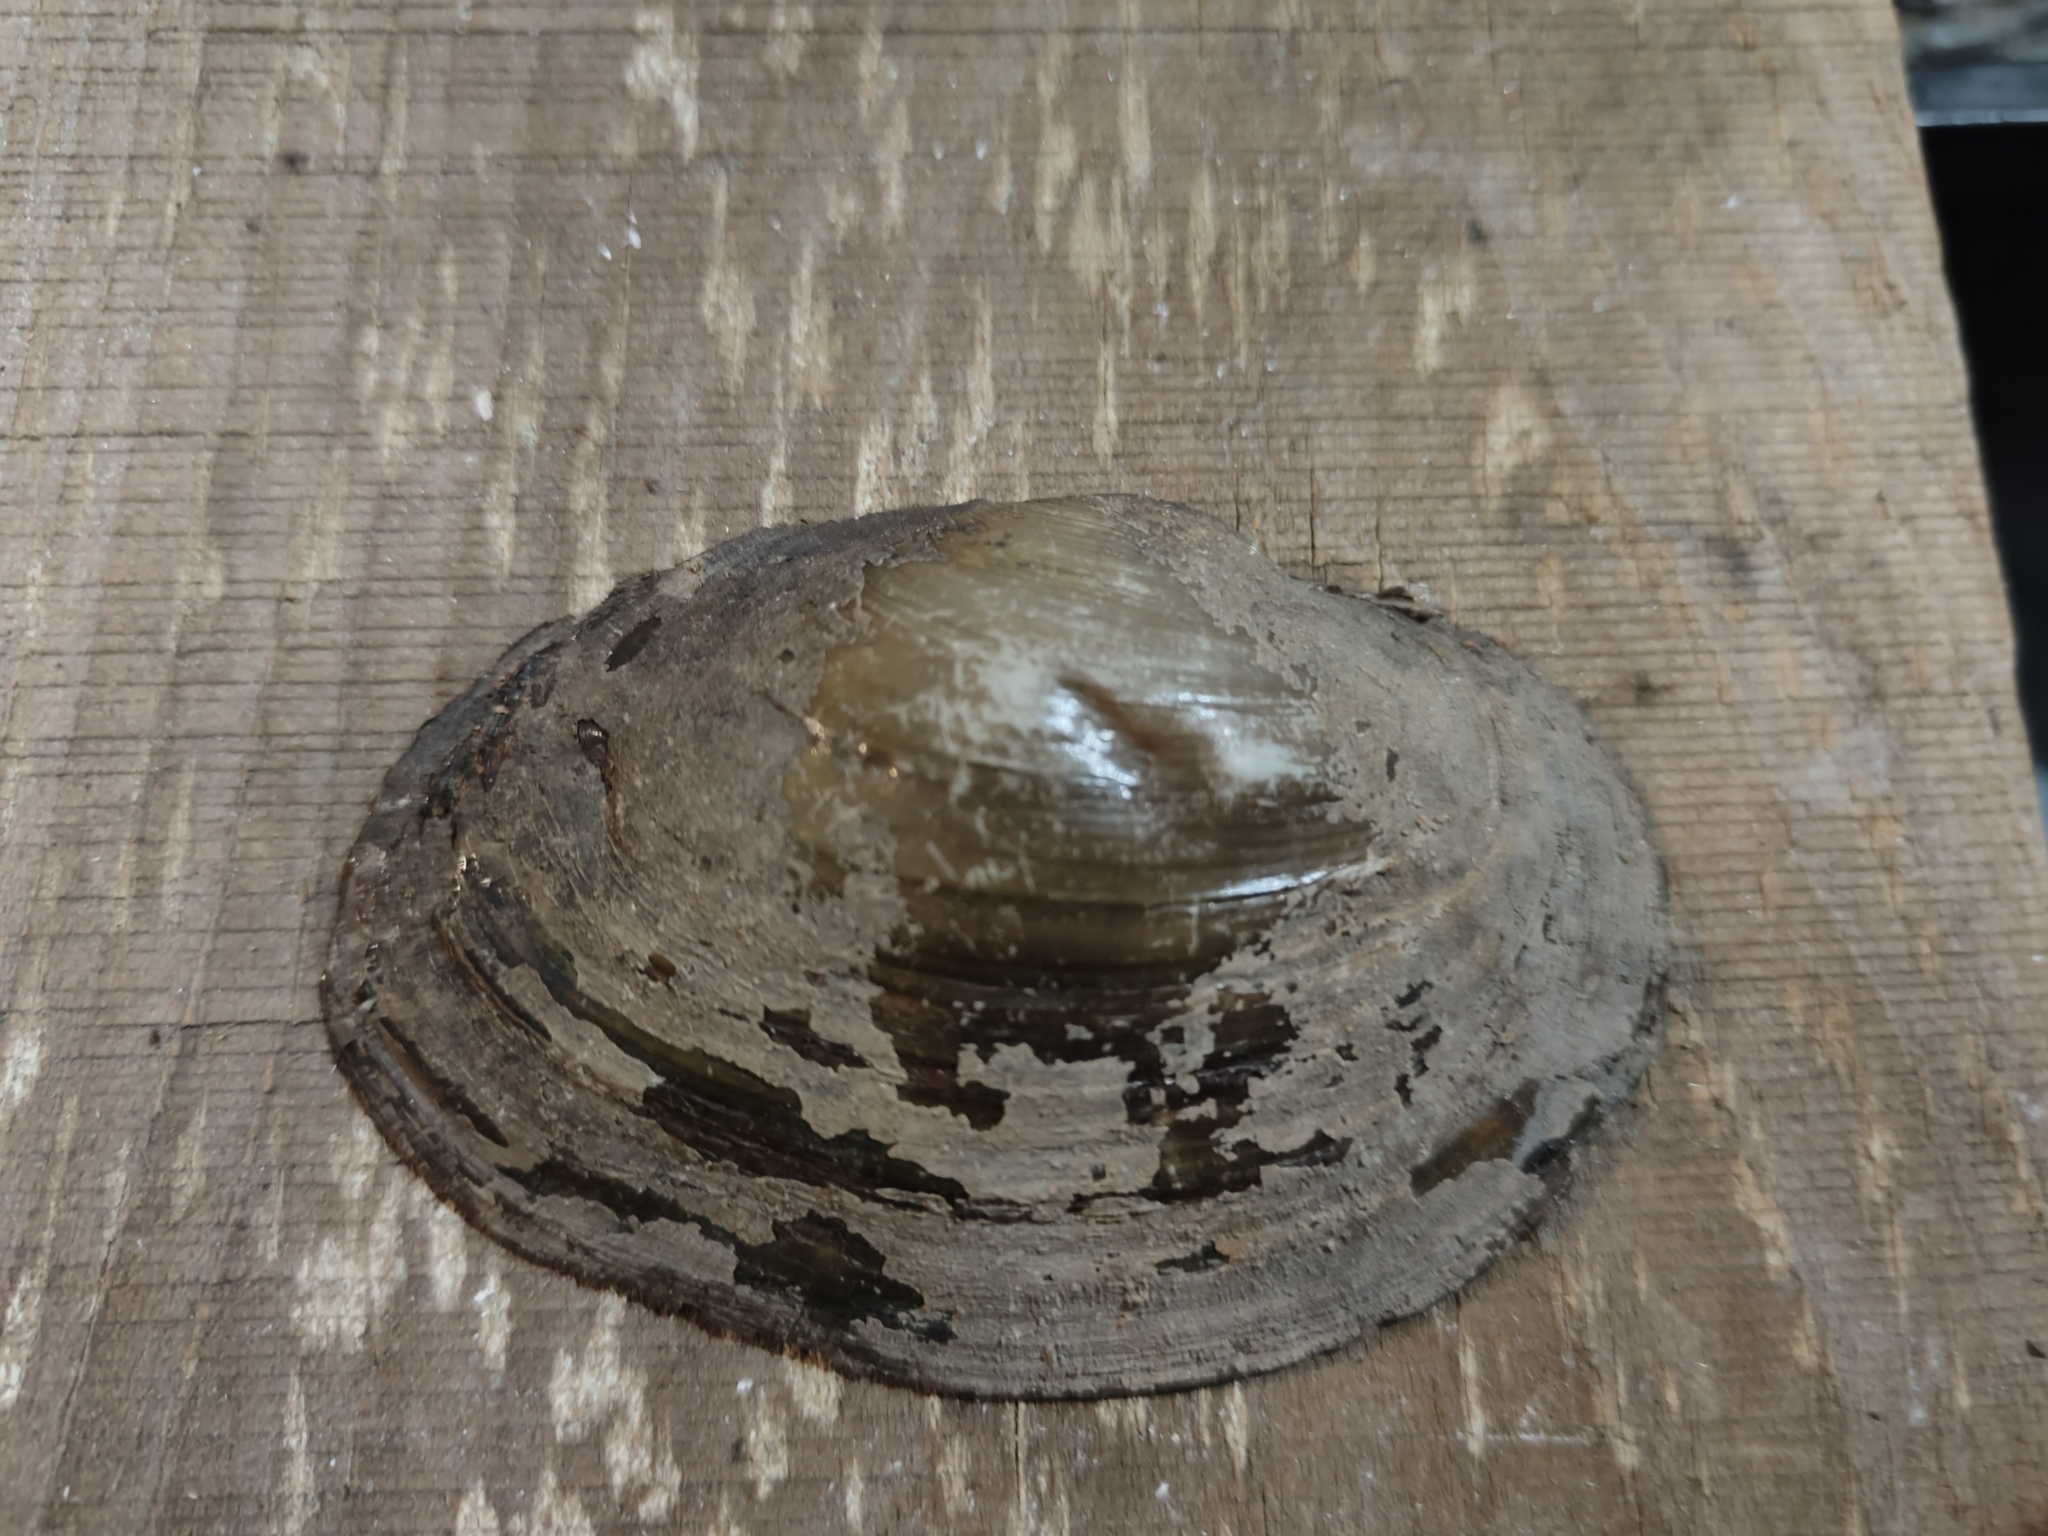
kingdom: Animalia
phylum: Mollusca
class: Bivalvia
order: Unionida
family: Unionidae
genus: Pyganodon
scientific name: Pyganodon grandis
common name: Giant floater
